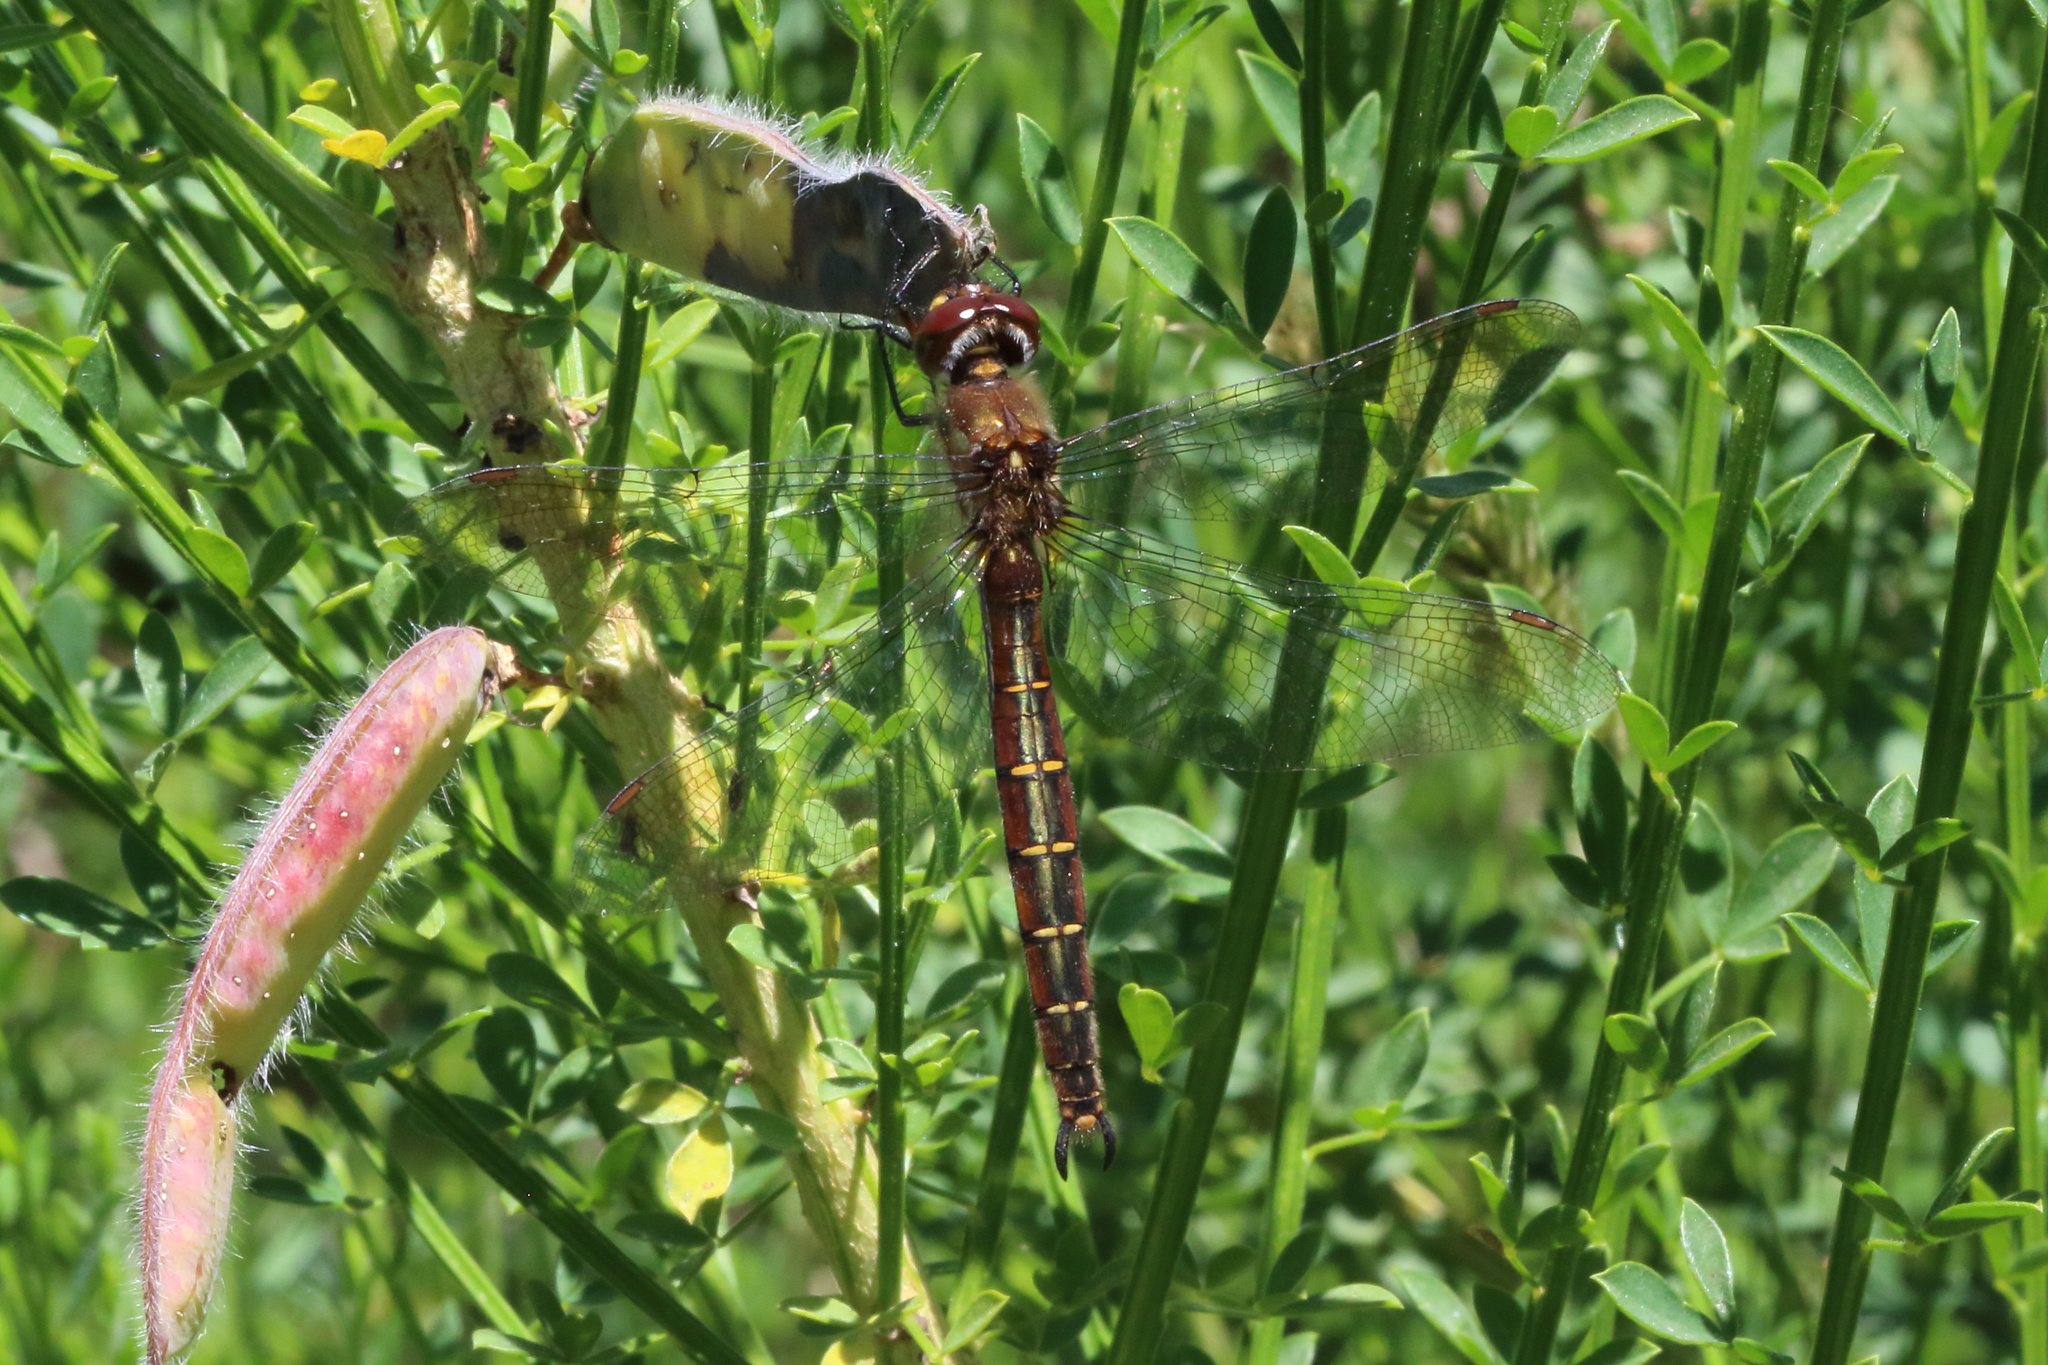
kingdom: Animalia
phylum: Arthropoda
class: Insecta
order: Odonata
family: Corduliidae
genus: Procordulia
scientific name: Procordulia smithii
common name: Ranger dragonfly
